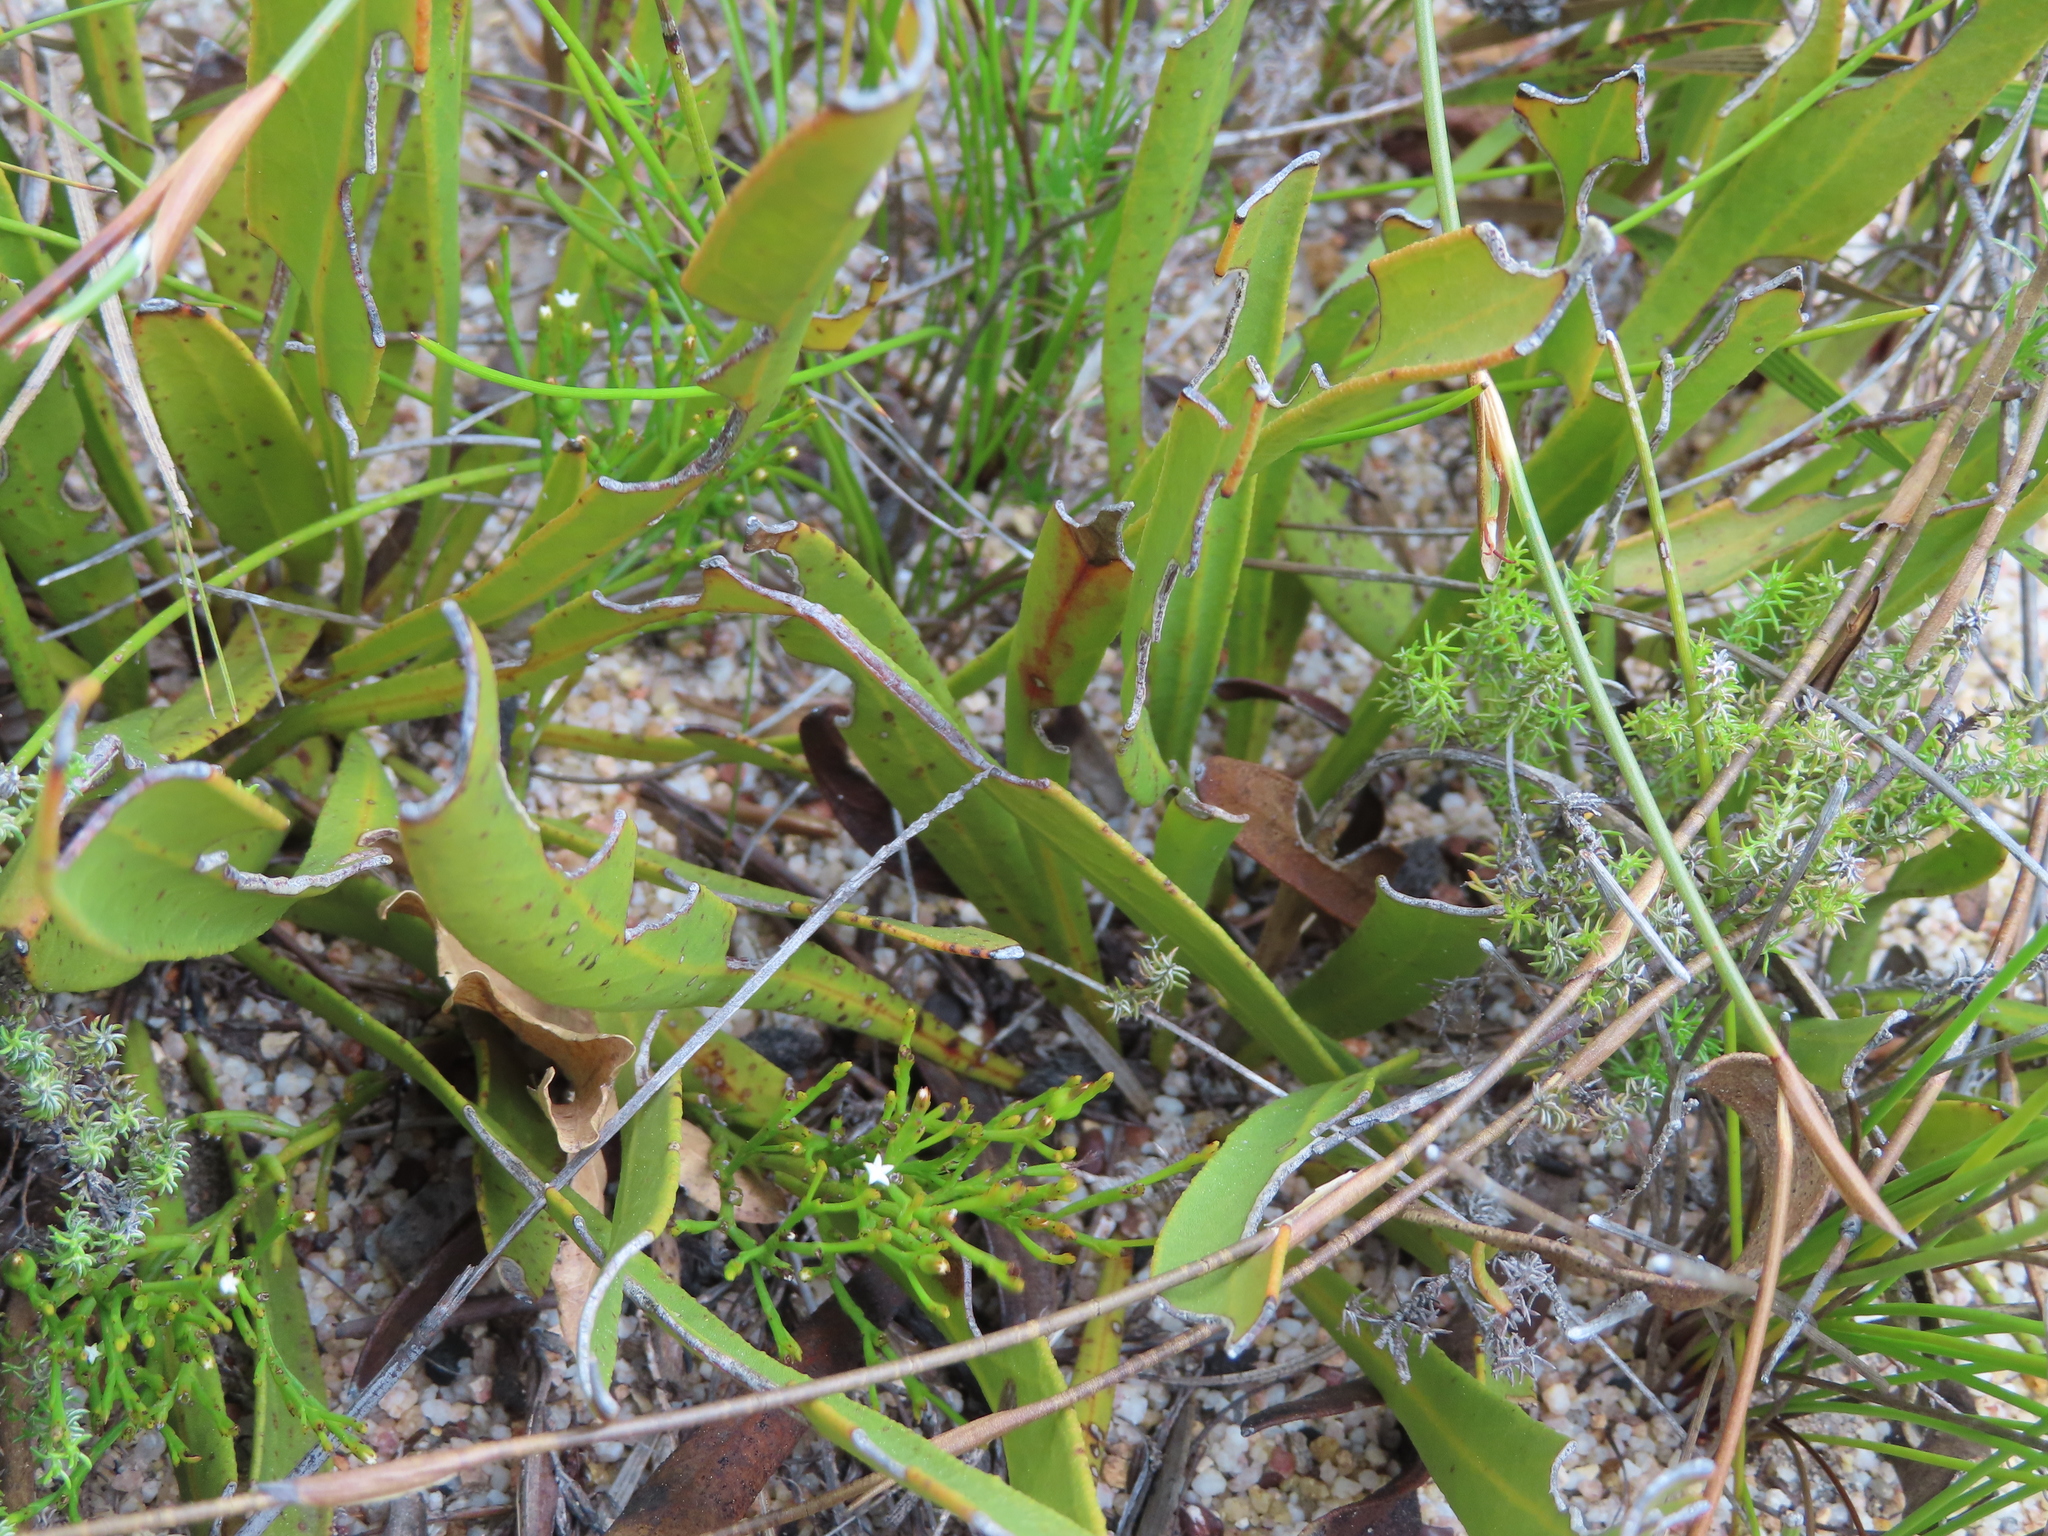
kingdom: Plantae
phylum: Tracheophyta
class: Magnoliopsida
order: Proteales
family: Proteaceae
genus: Protea
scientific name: Protea acaulos
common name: Common ground sugarbush
